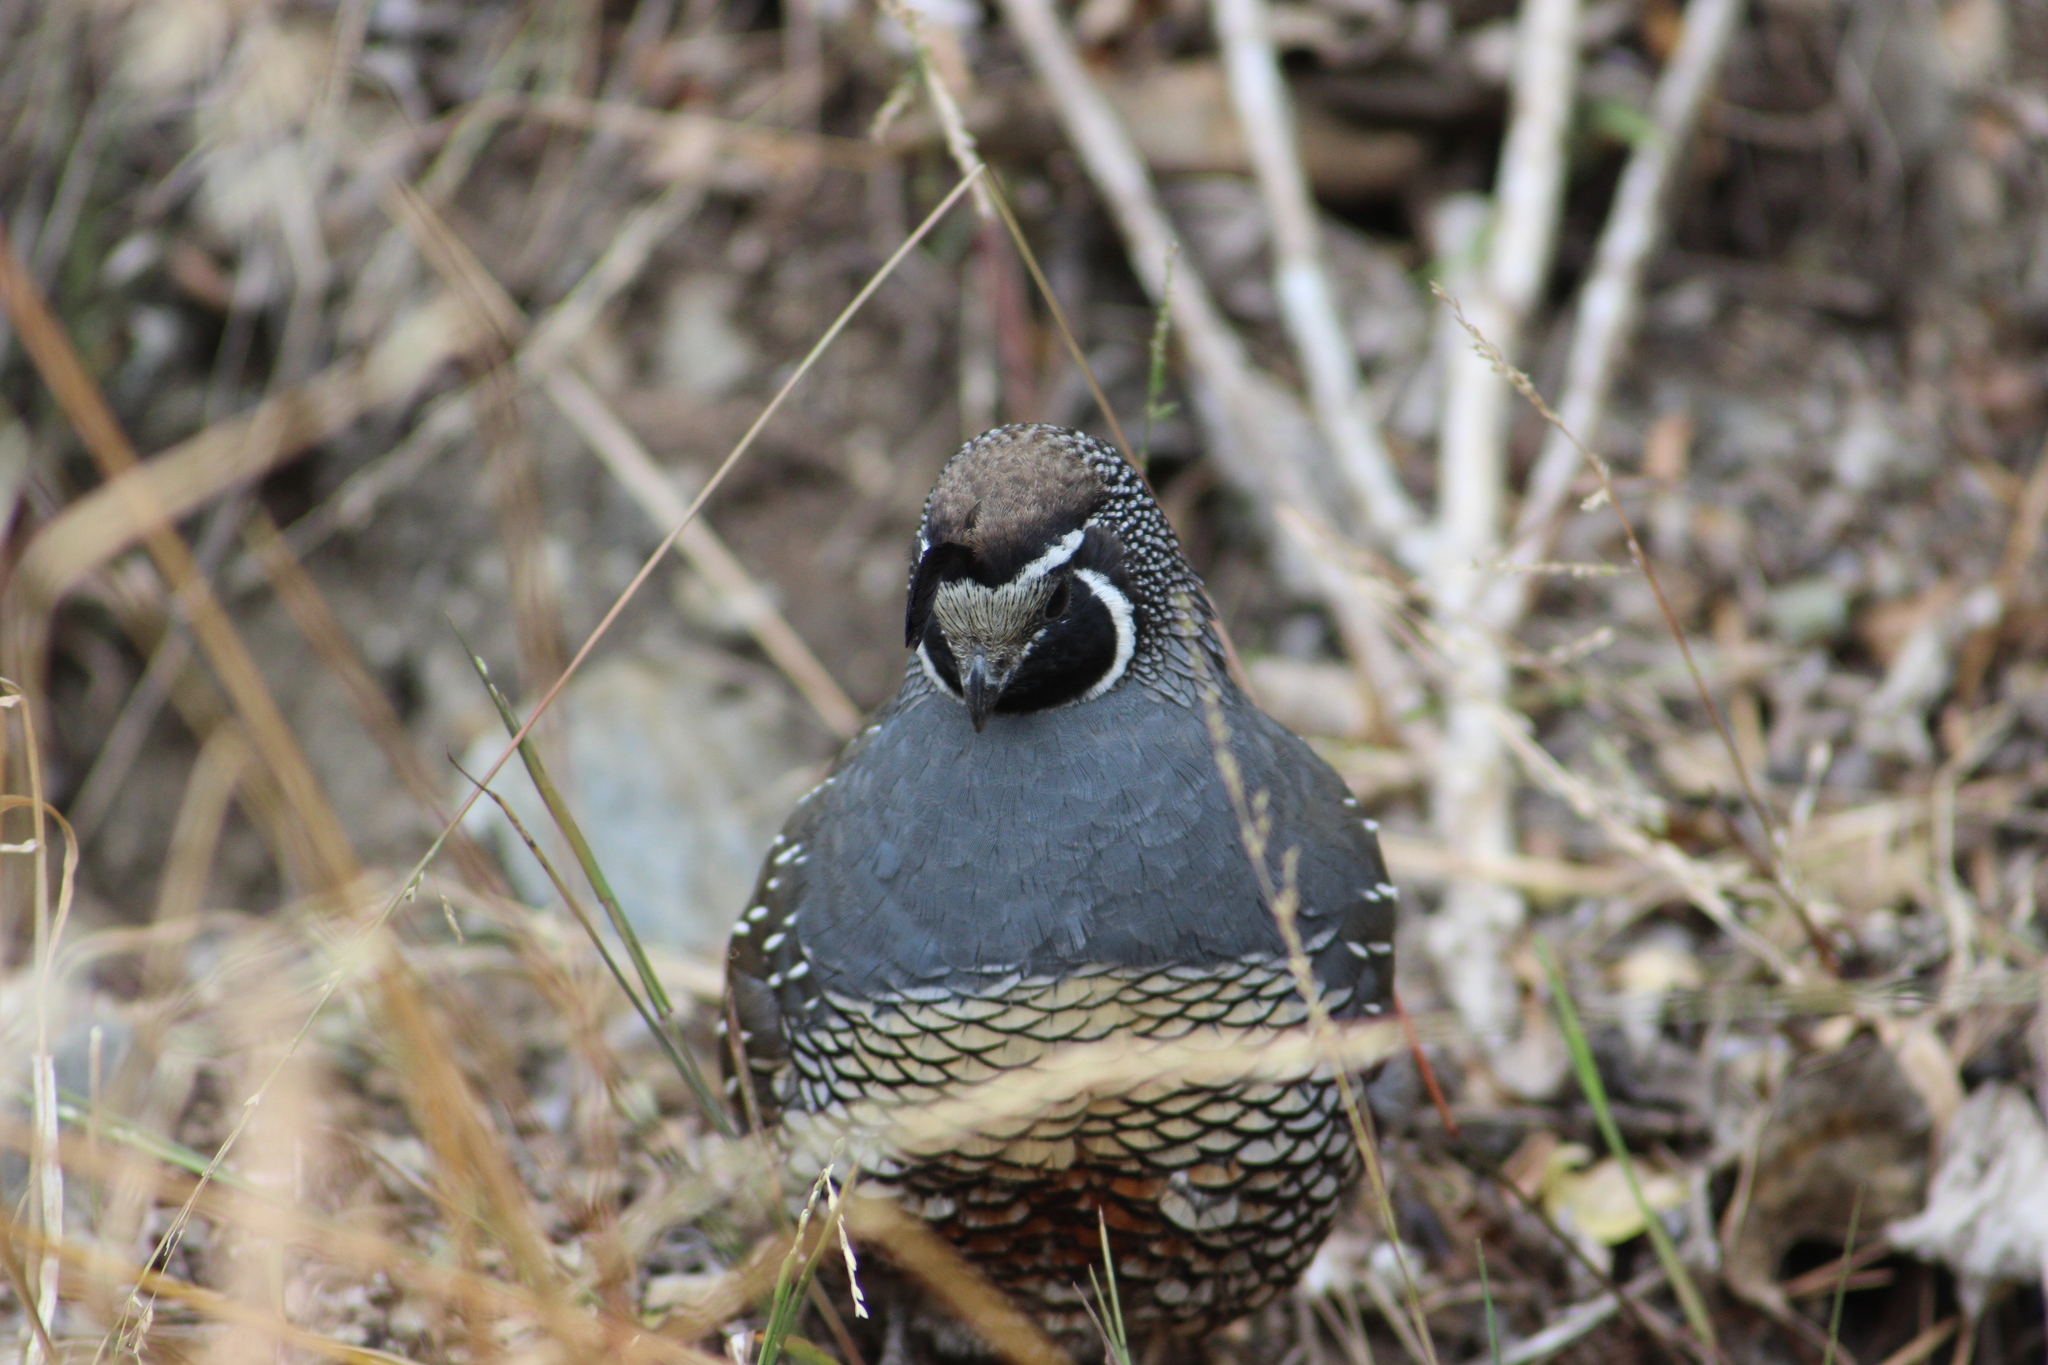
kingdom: Animalia
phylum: Chordata
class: Aves
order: Galliformes
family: Odontophoridae
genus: Callipepla
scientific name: Callipepla californica
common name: California quail
